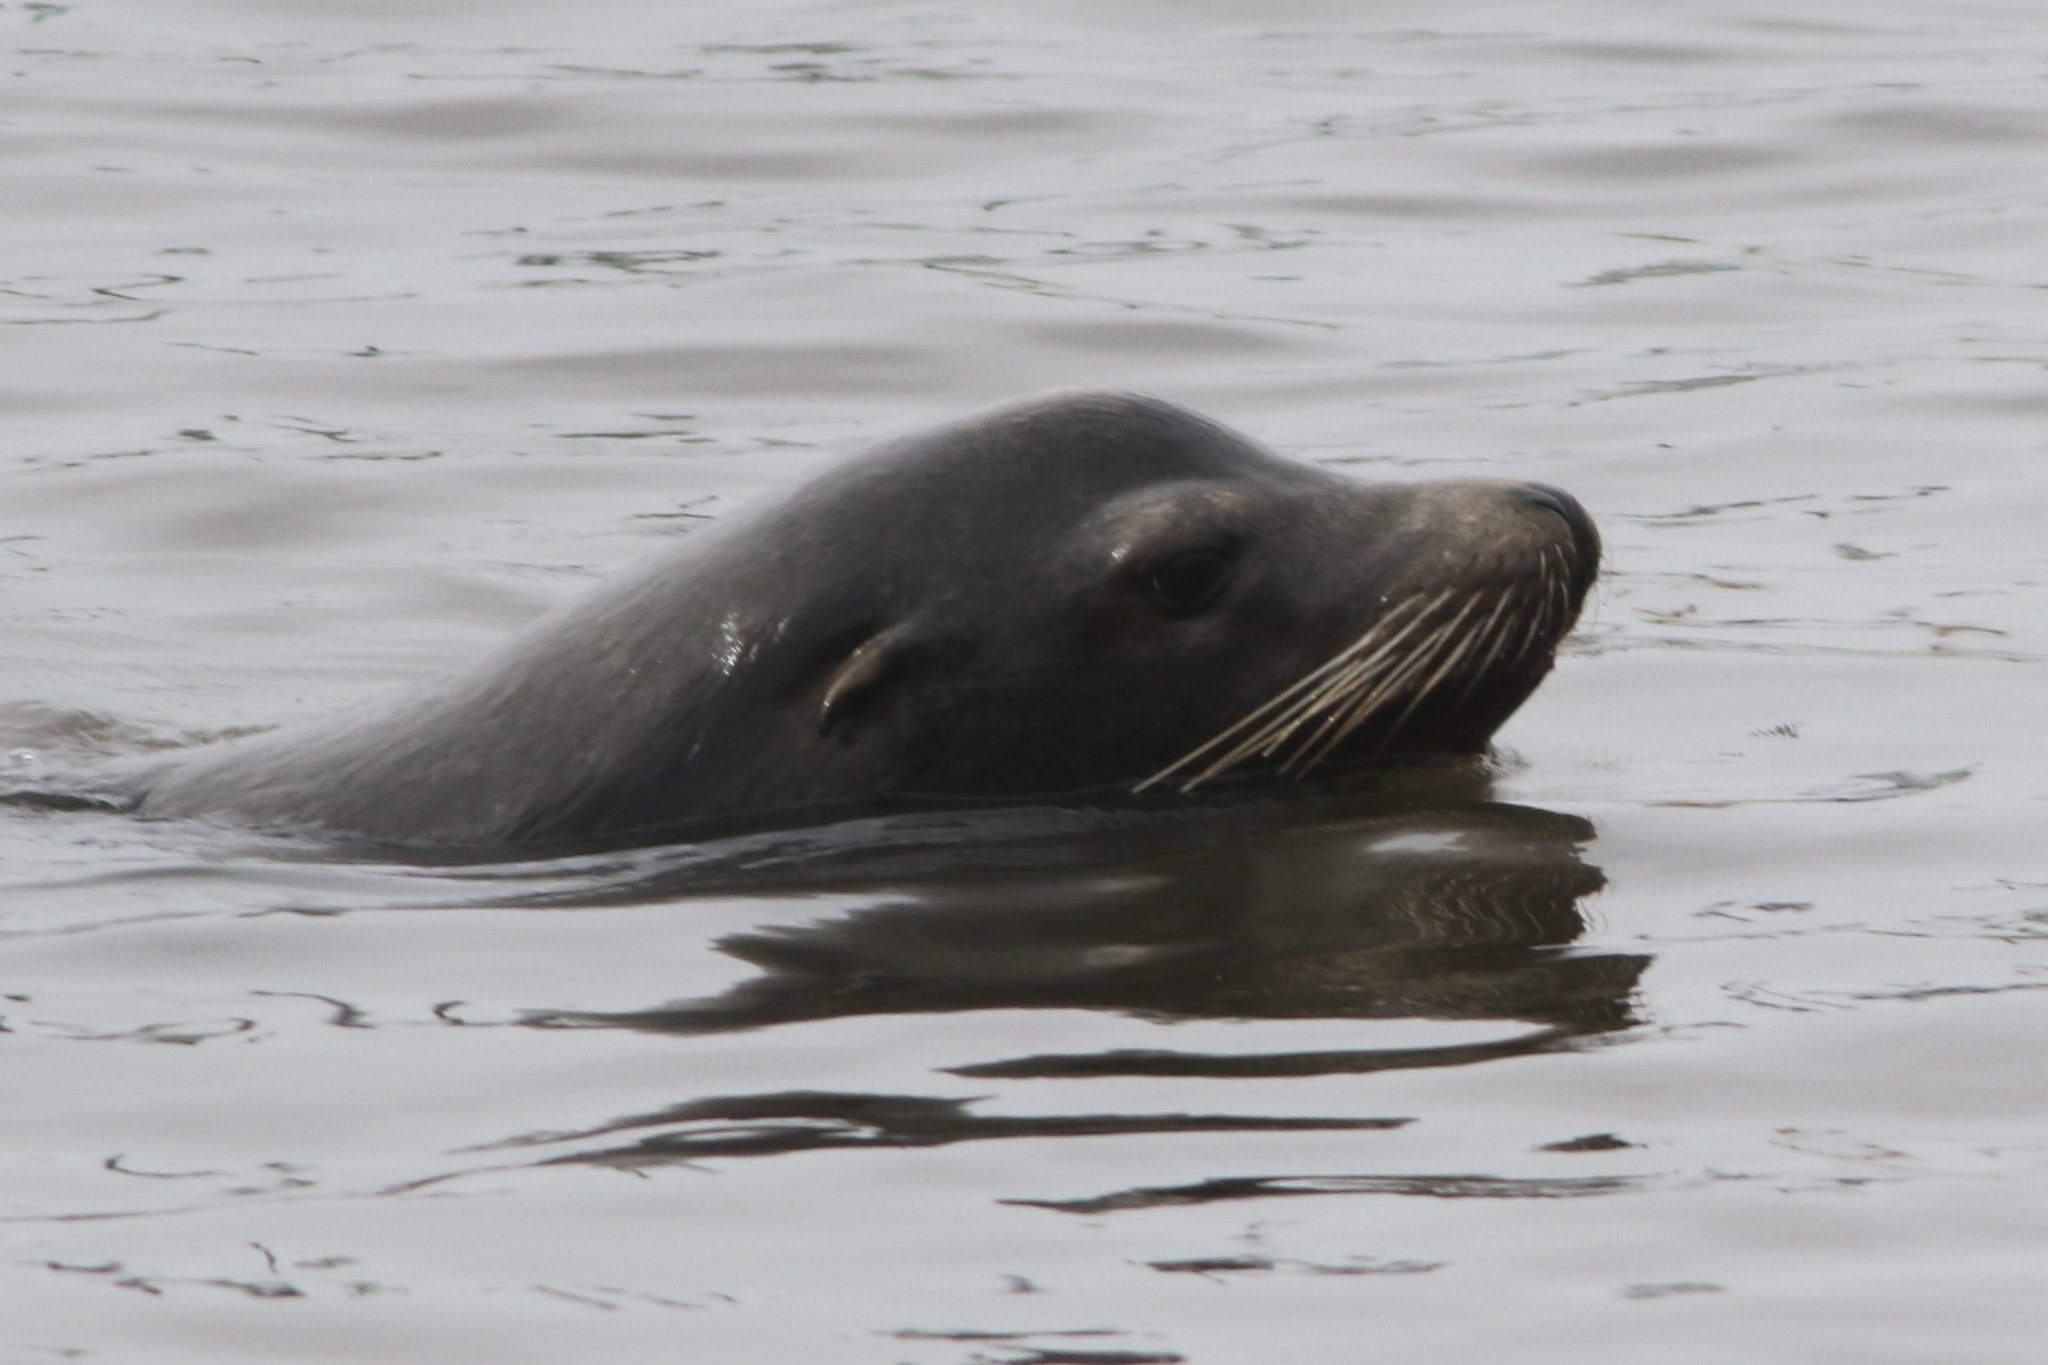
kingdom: Animalia
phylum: Chordata
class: Mammalia
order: Carnivora
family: Otariidae
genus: Zalophus
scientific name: Zalophus californianus
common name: California sea lion
